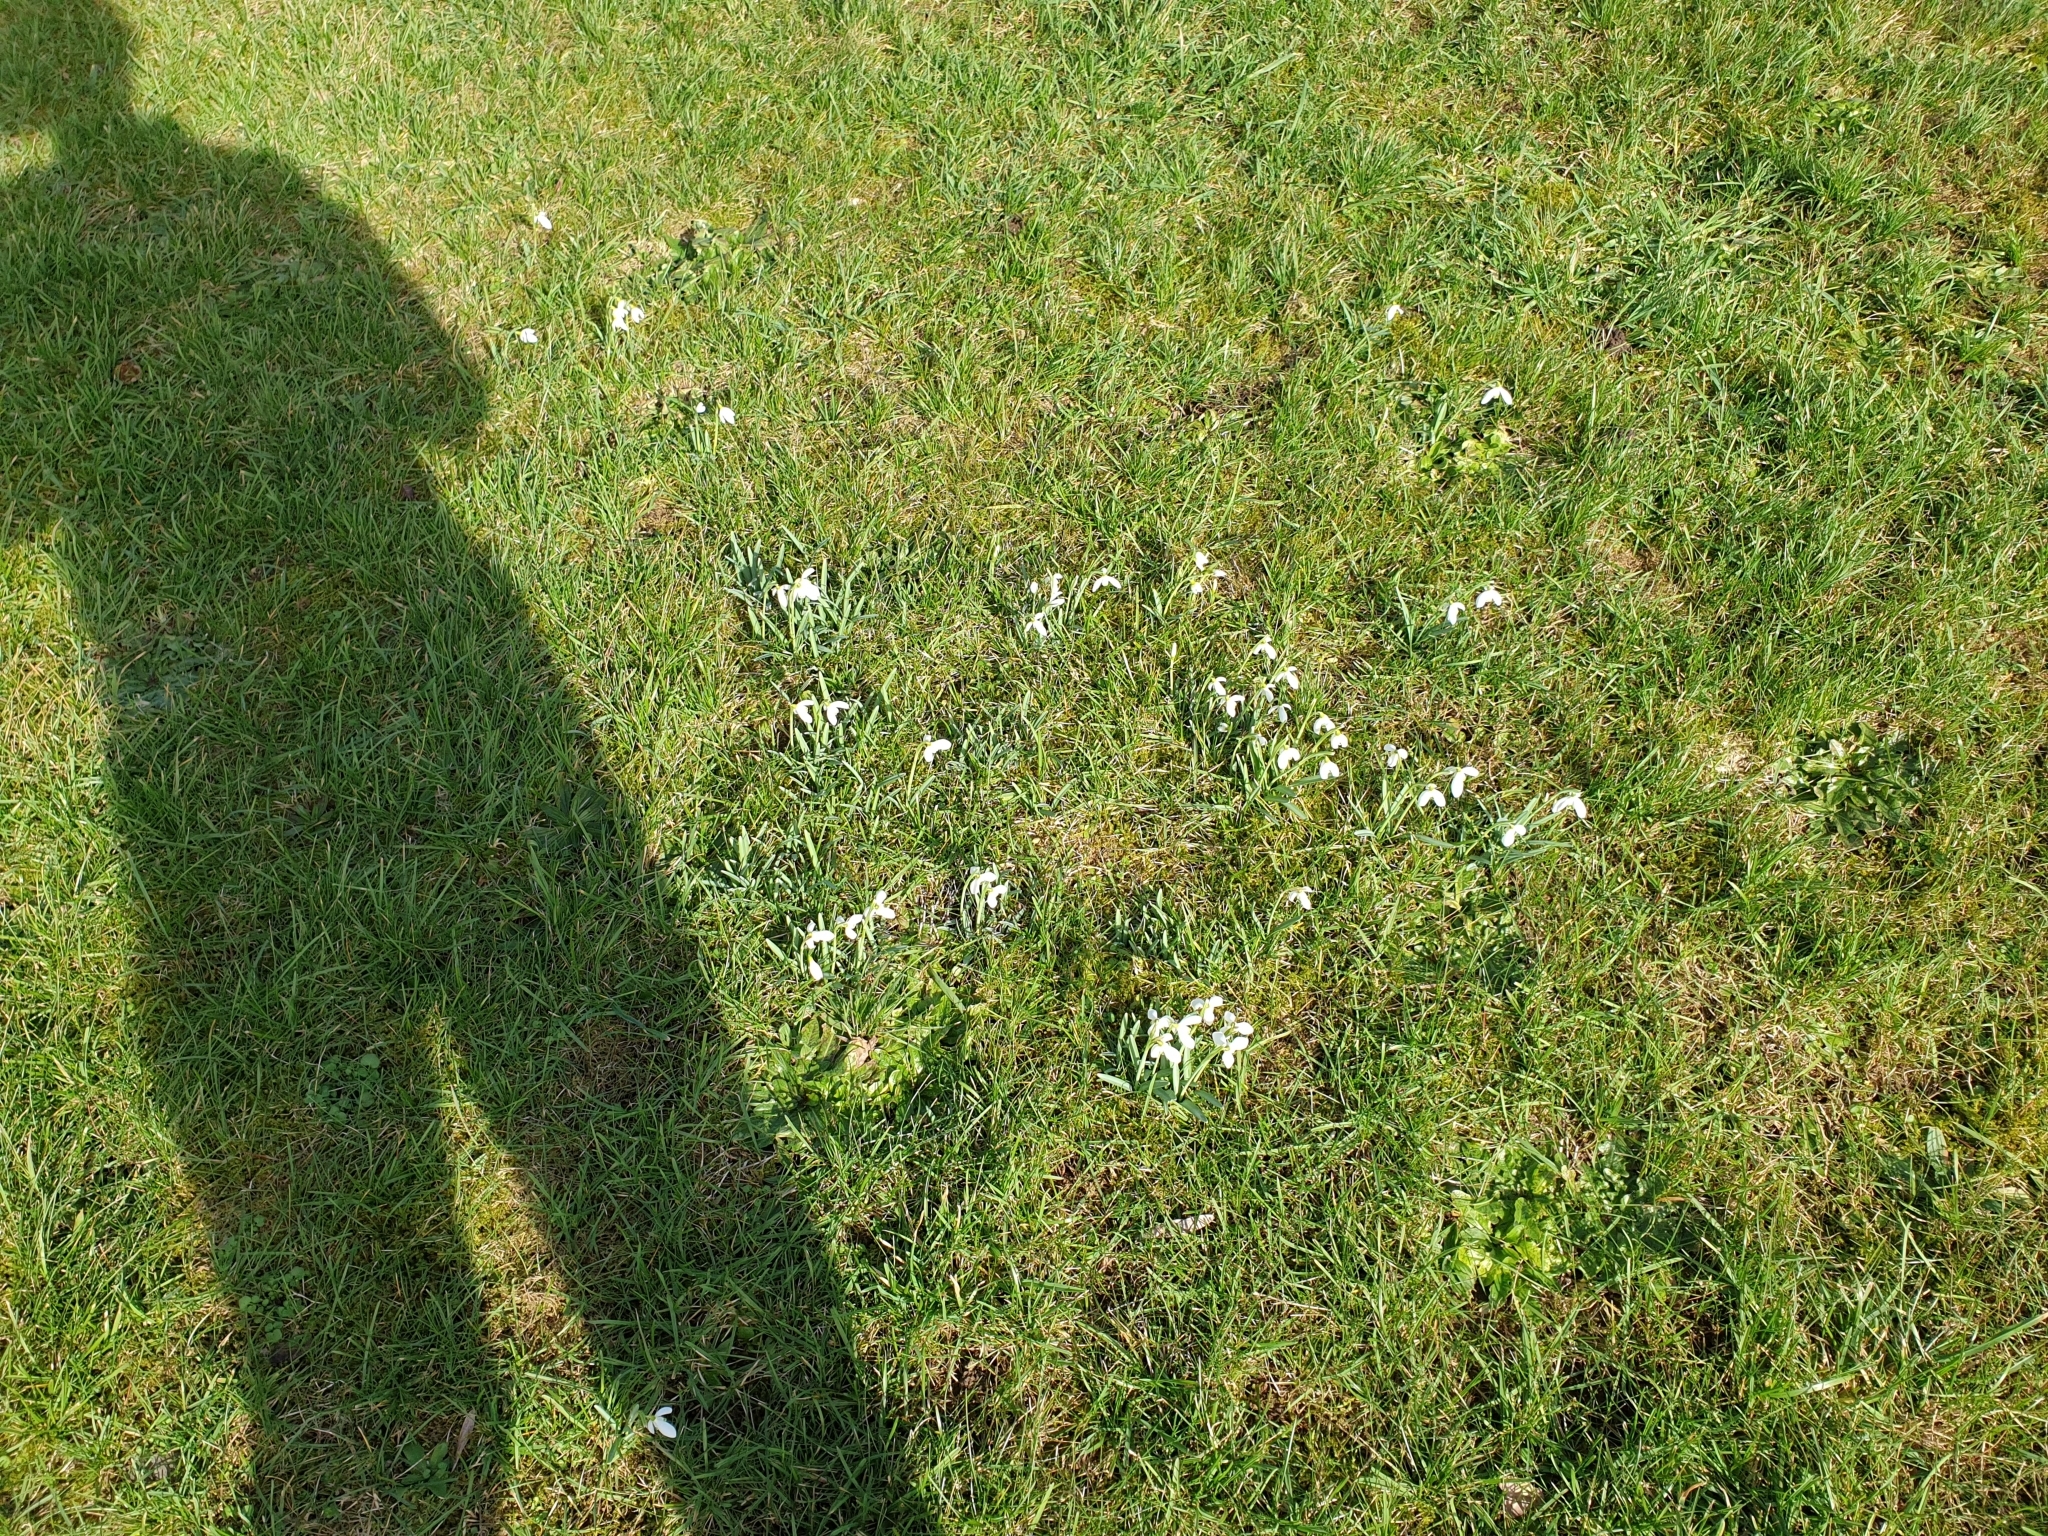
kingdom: Plantae
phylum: Tracheophyta
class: Liliopsida
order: Asparagales
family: Amaryllidaceae
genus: Galanthus
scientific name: Galanthus nivalis
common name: Snowdrop
